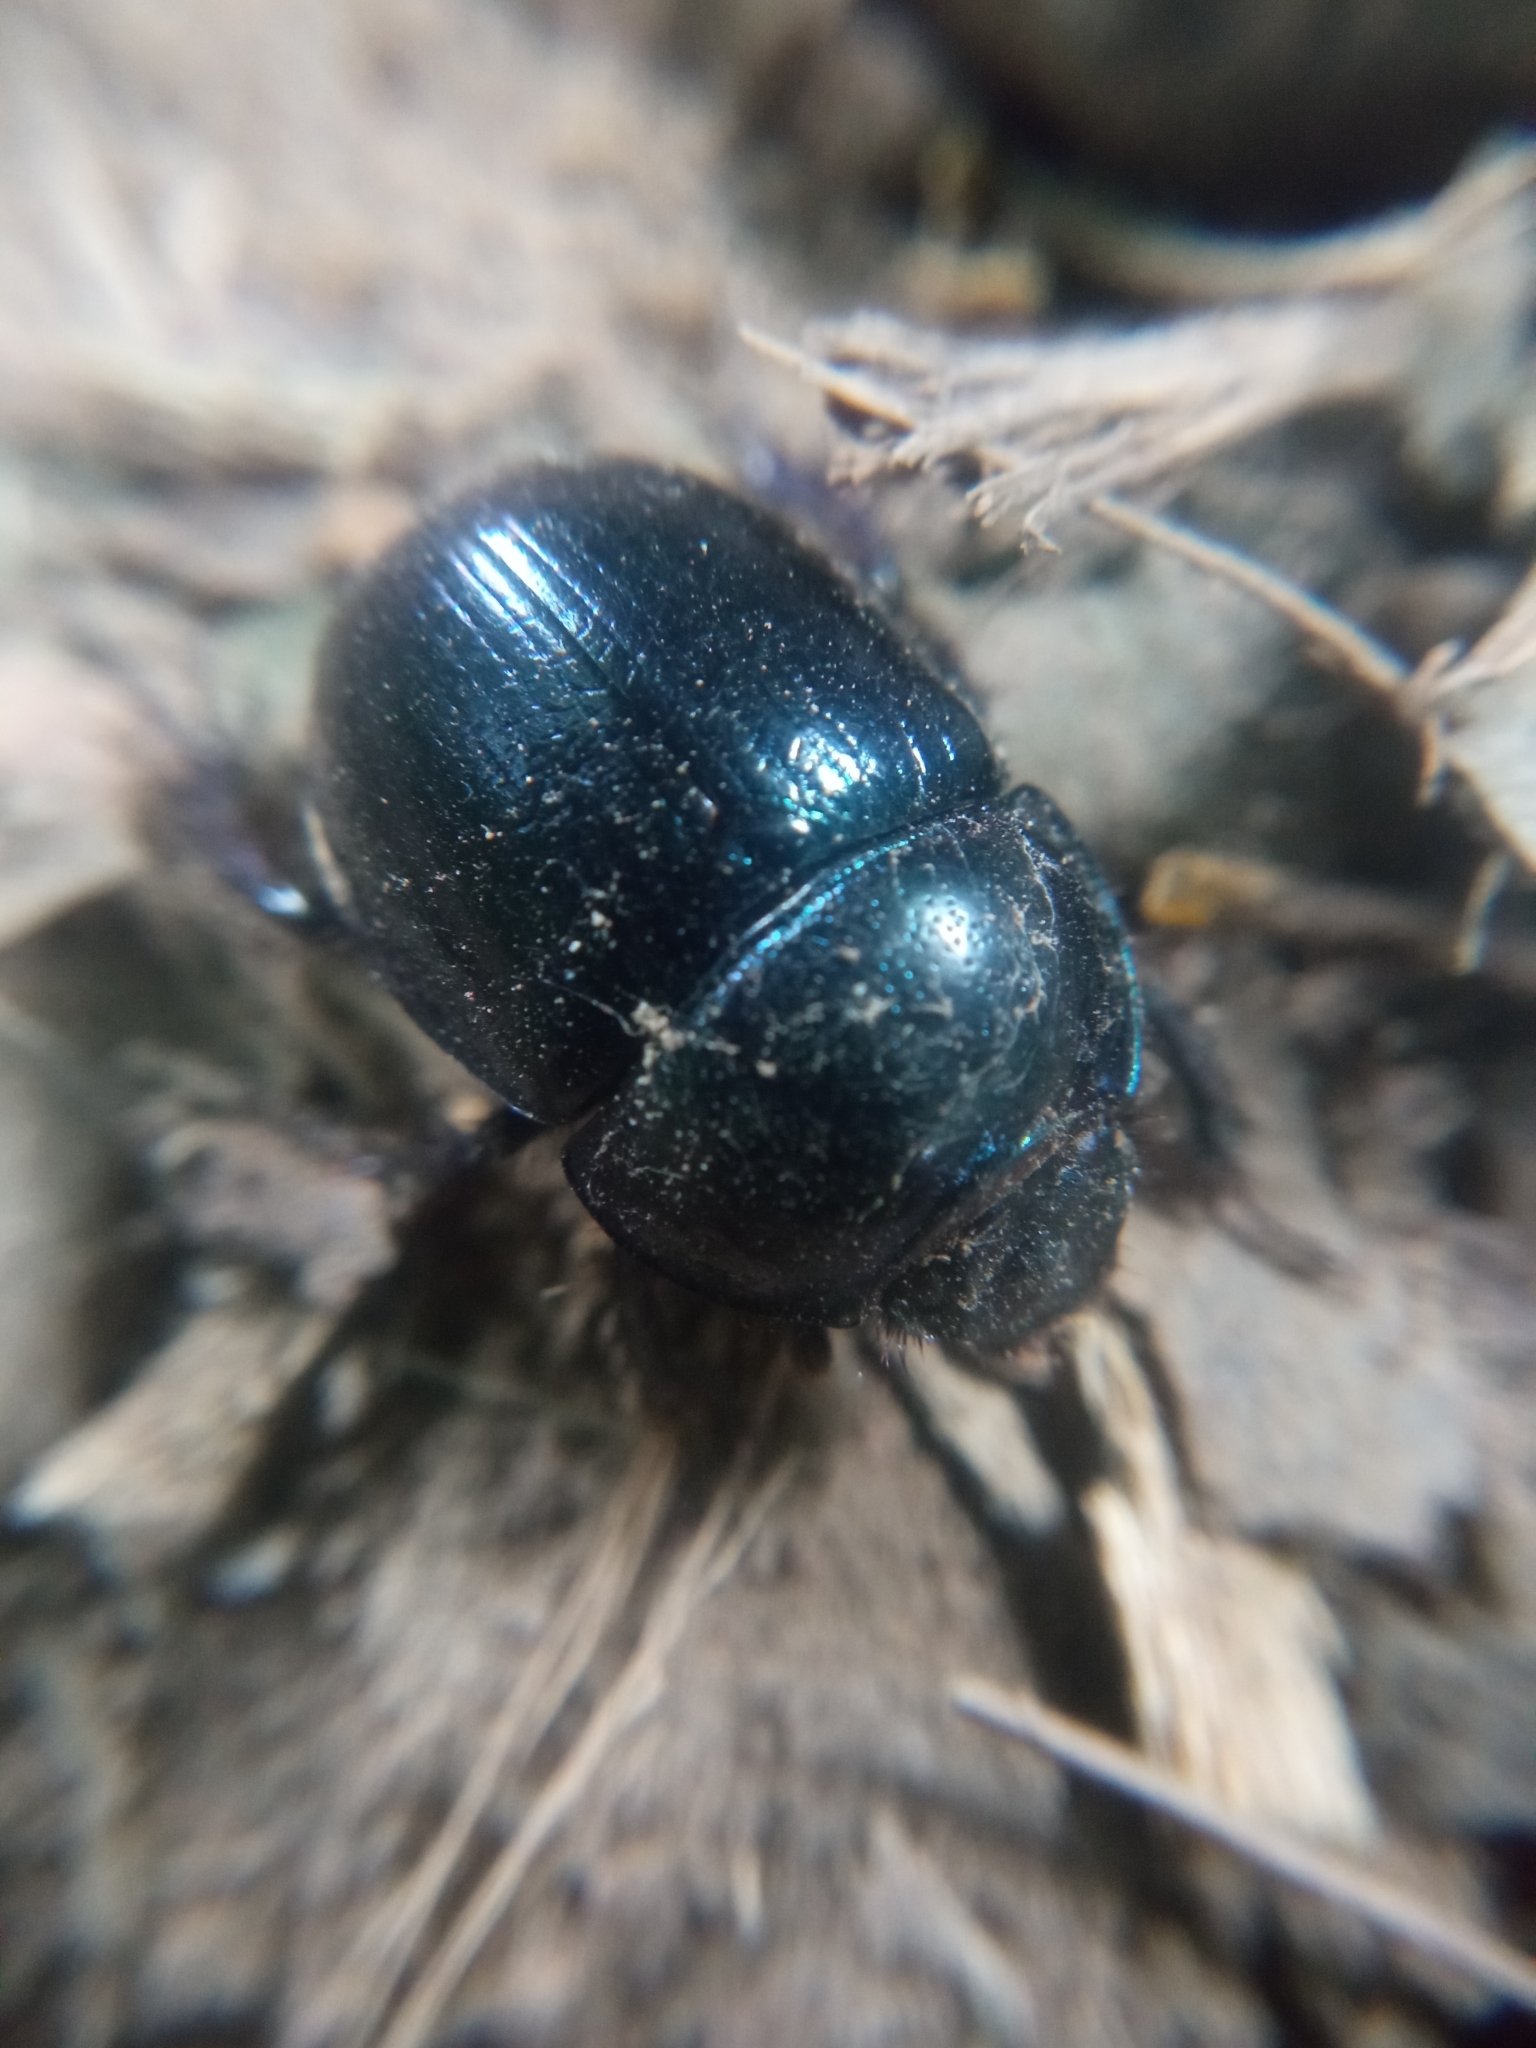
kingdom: Animalia
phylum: Arthropoda
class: Insecta
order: Coleoptera
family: Geotrupidae
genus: Anoplotrupes
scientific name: Anoplotrupes stercorosus
